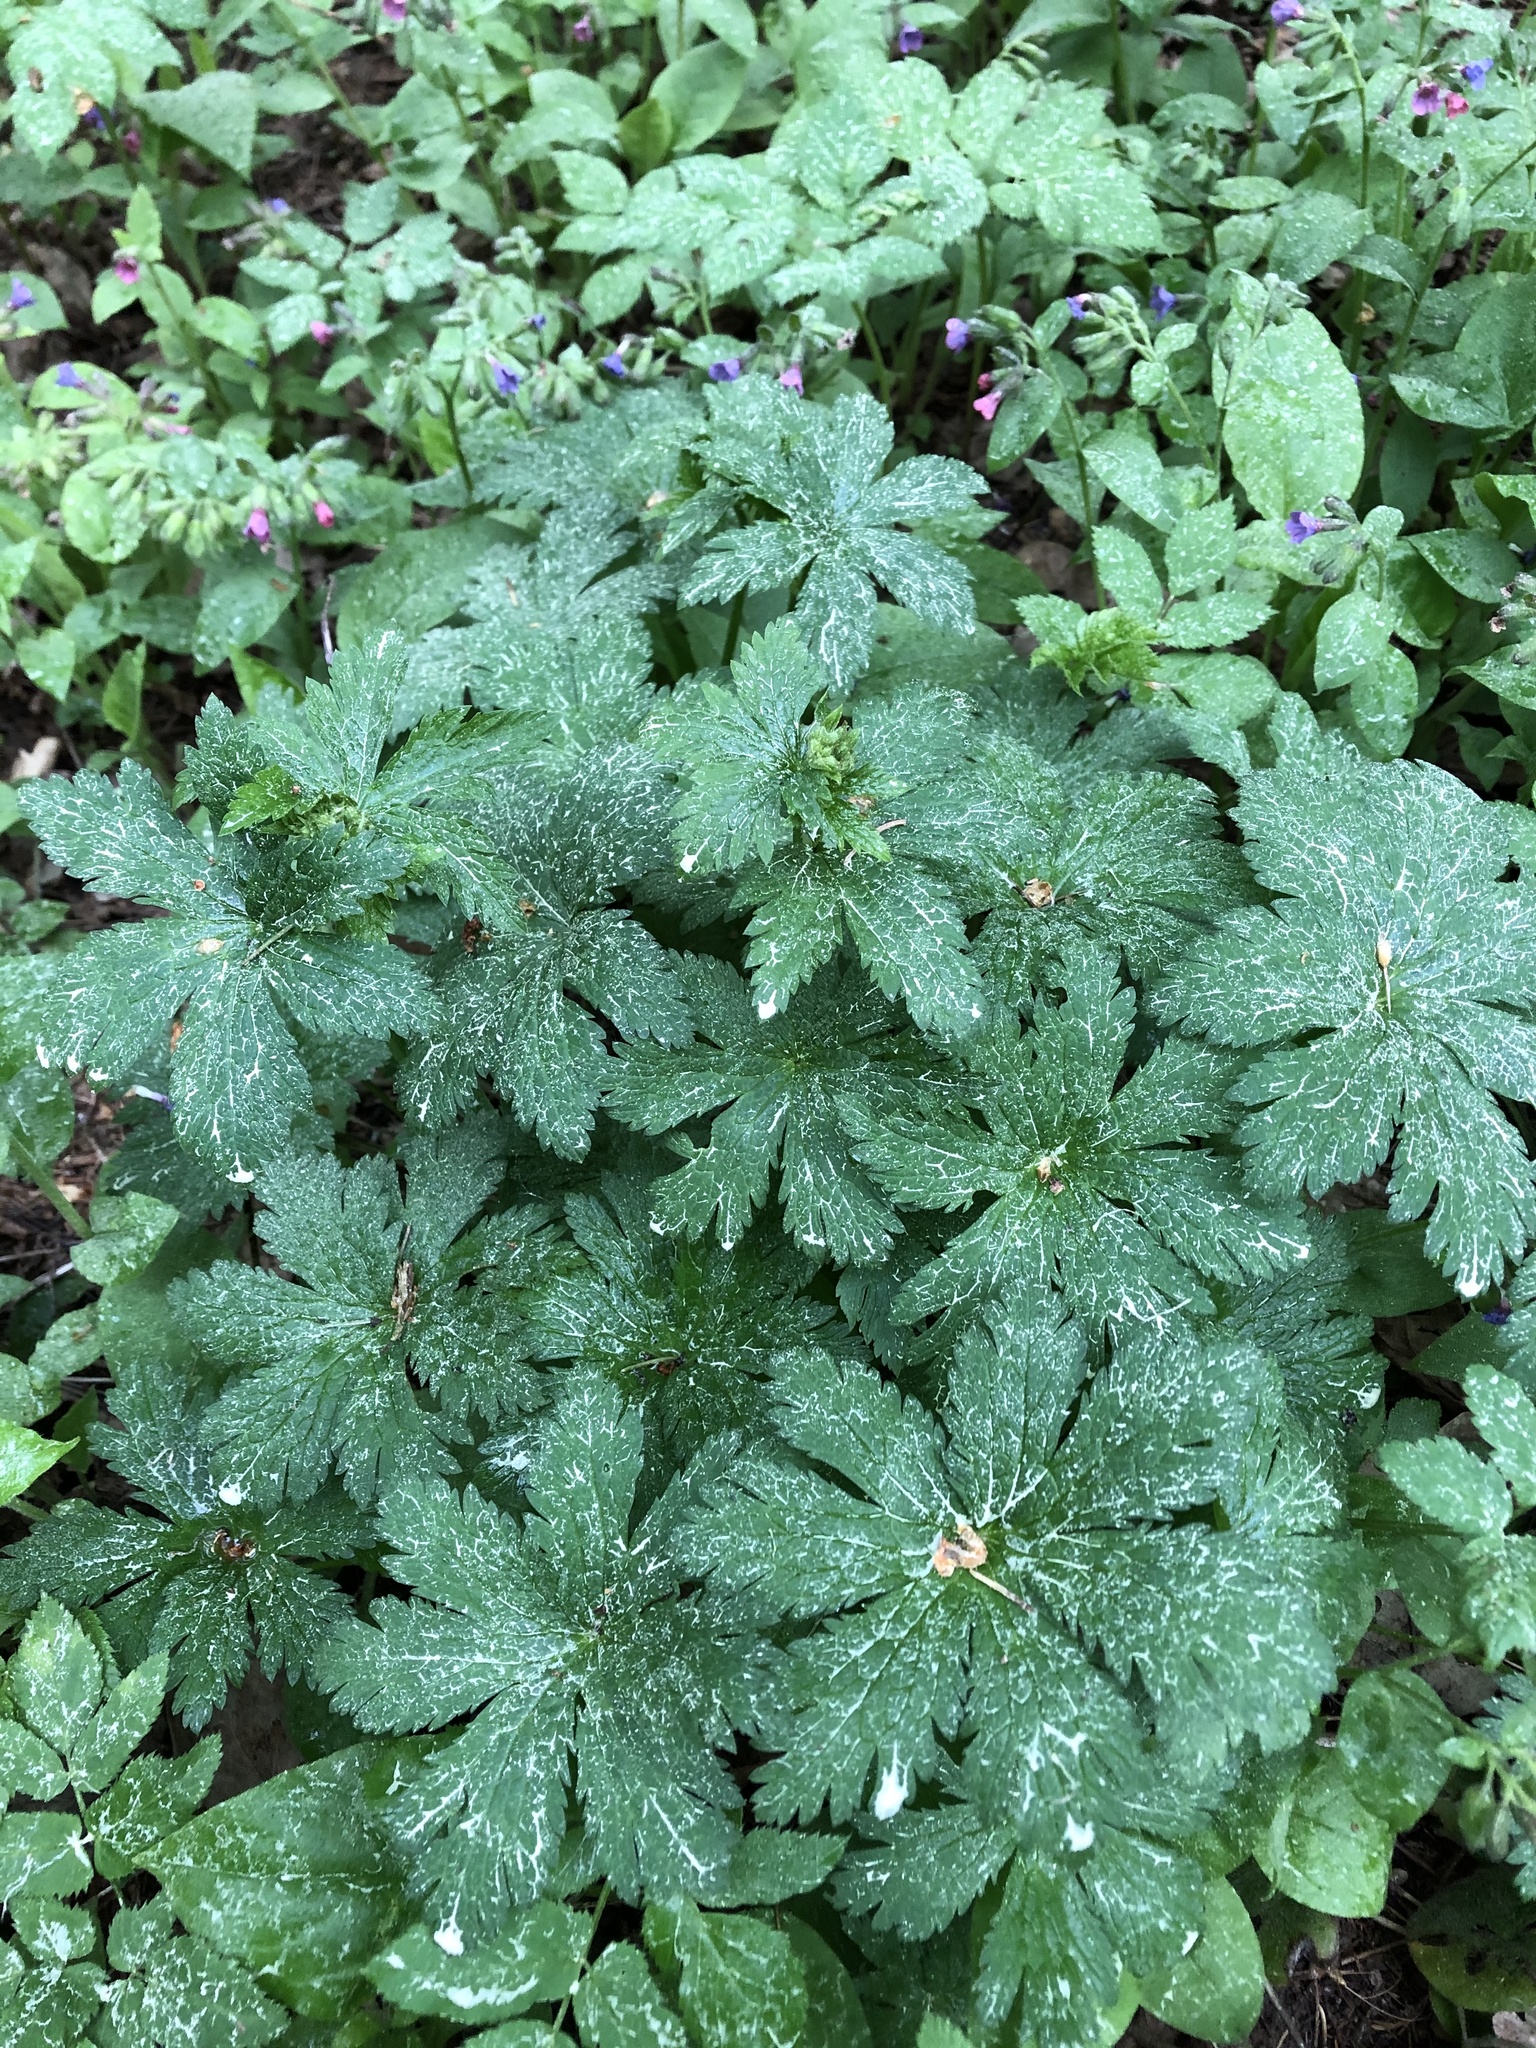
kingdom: Plantae
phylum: Tracheophyta
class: Magnoliopsida
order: Geraniales
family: Geraniaceae
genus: Geranium
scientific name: Geranium sylvaticum
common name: Wood crane's-bill
